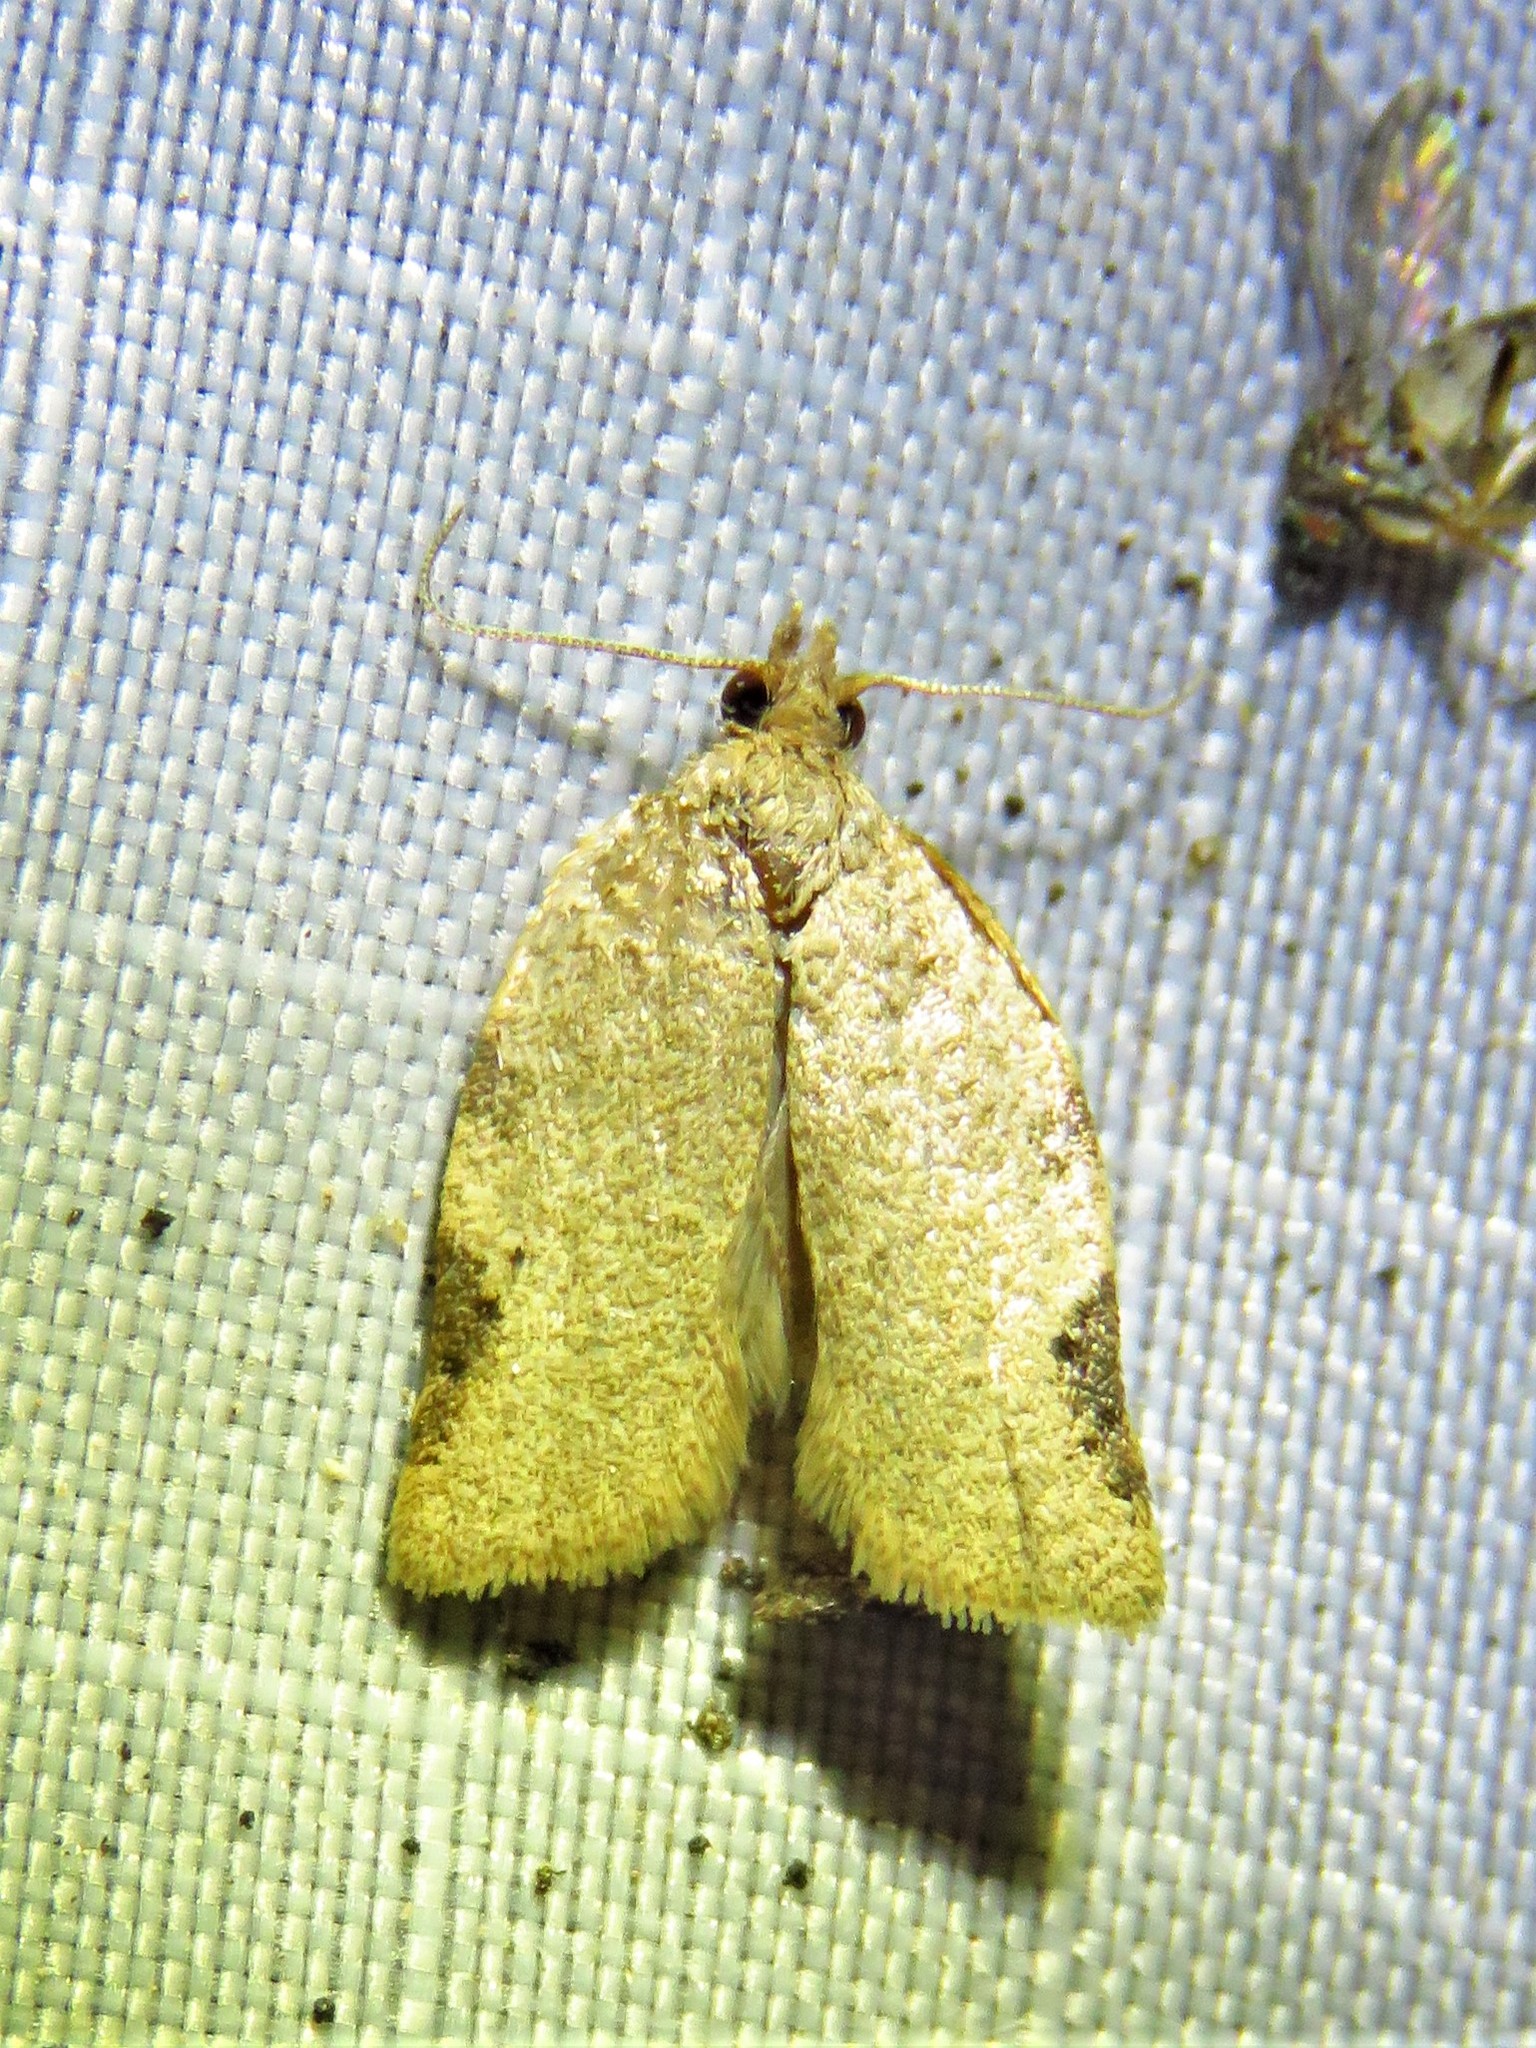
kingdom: Animalia
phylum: Arthropoda
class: Insecta
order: Lepidoptera
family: Tortricidae
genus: Clepsis
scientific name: Clepsis virescana
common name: Greenish apple moth
